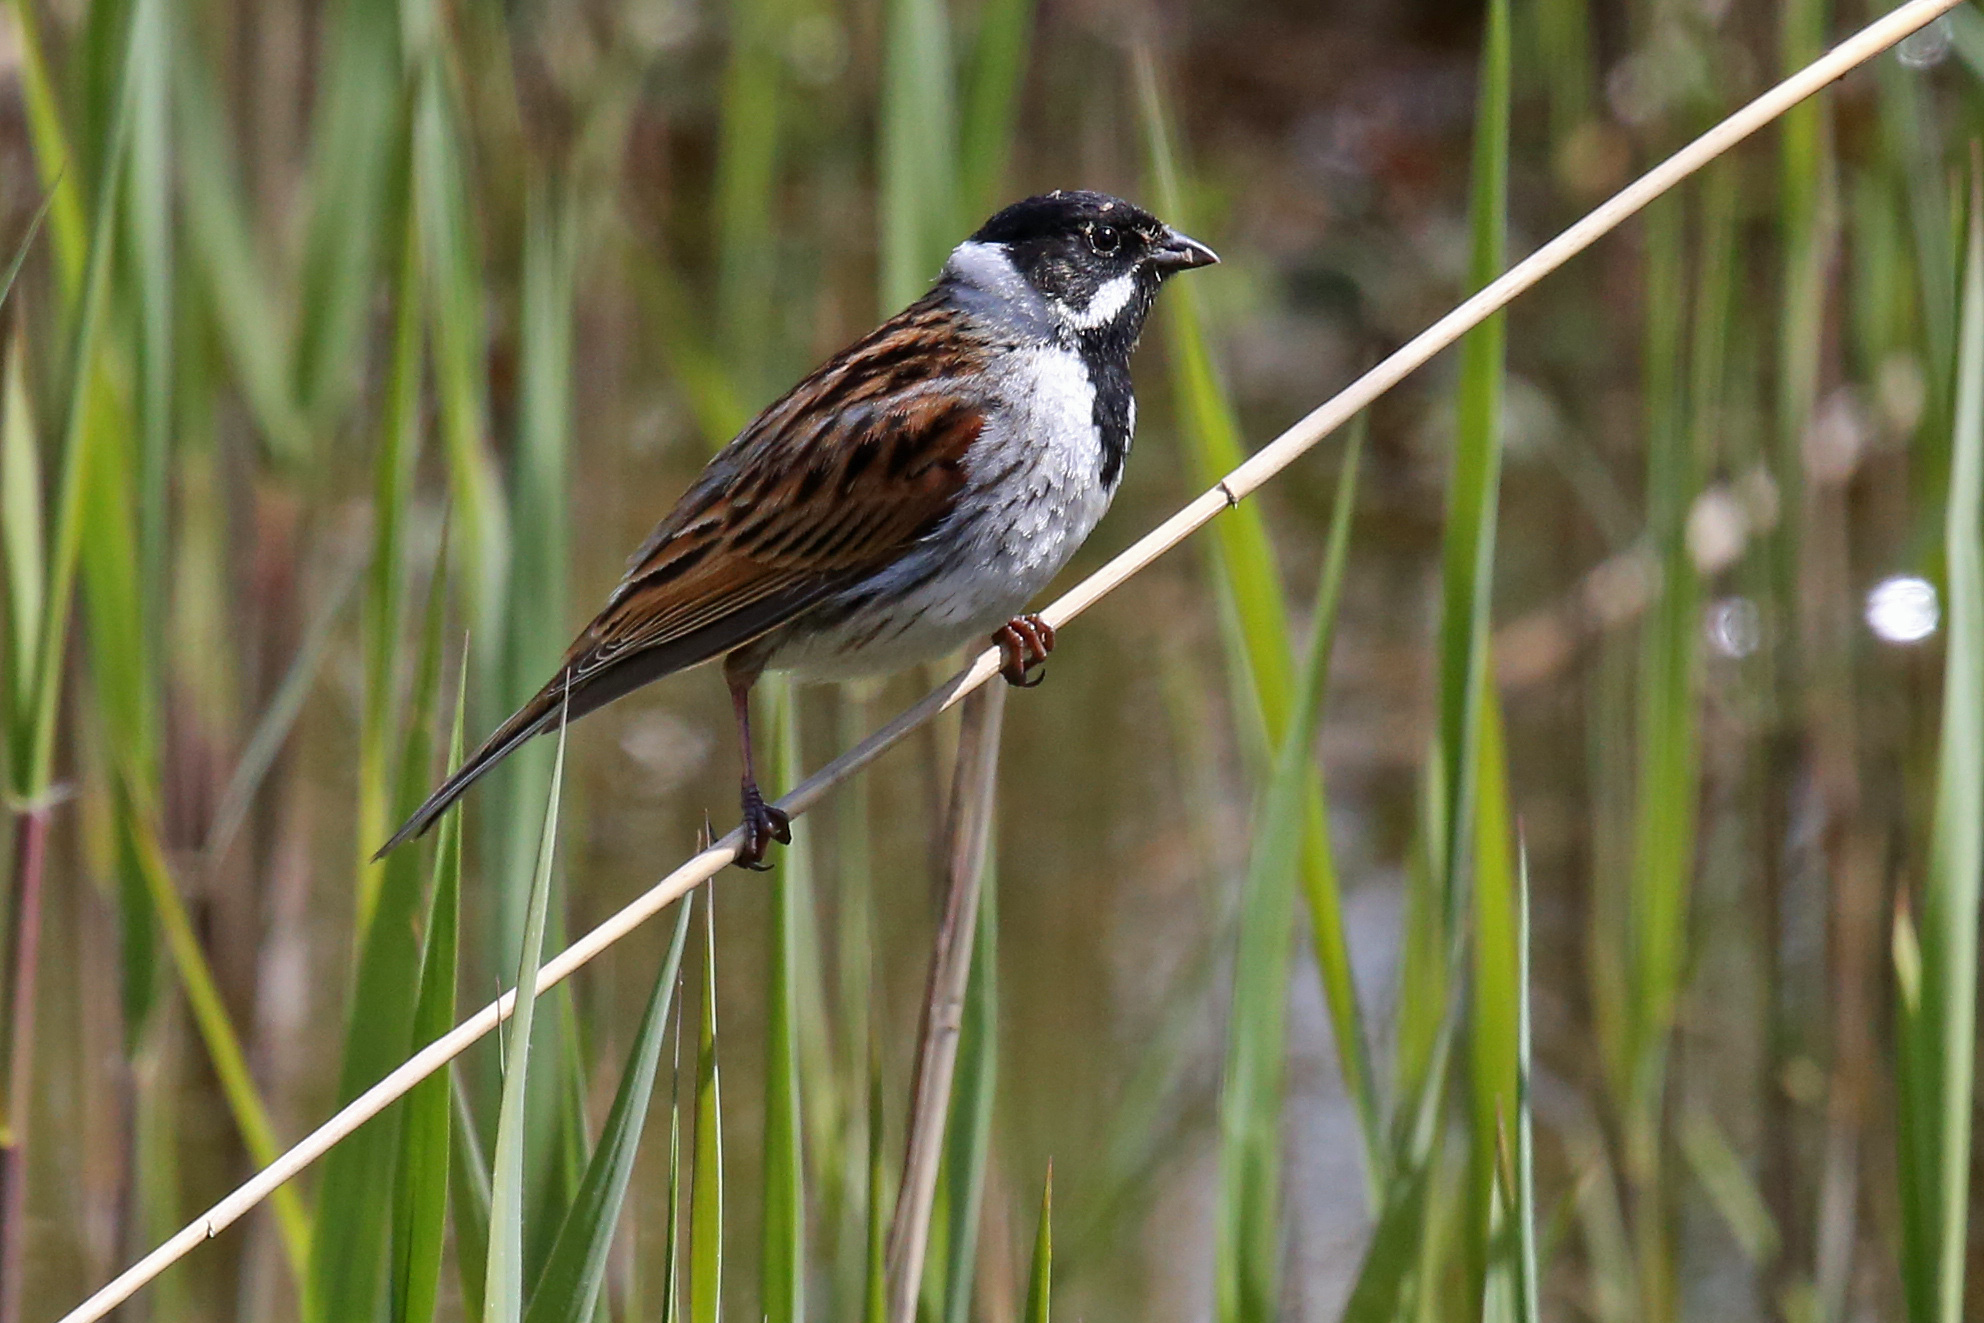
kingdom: Animalia
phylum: Chordata
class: Aves
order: Passeriformes
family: Emberizidae
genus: Emberiza
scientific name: Emberiza schoeniclus
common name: Reed bunting
